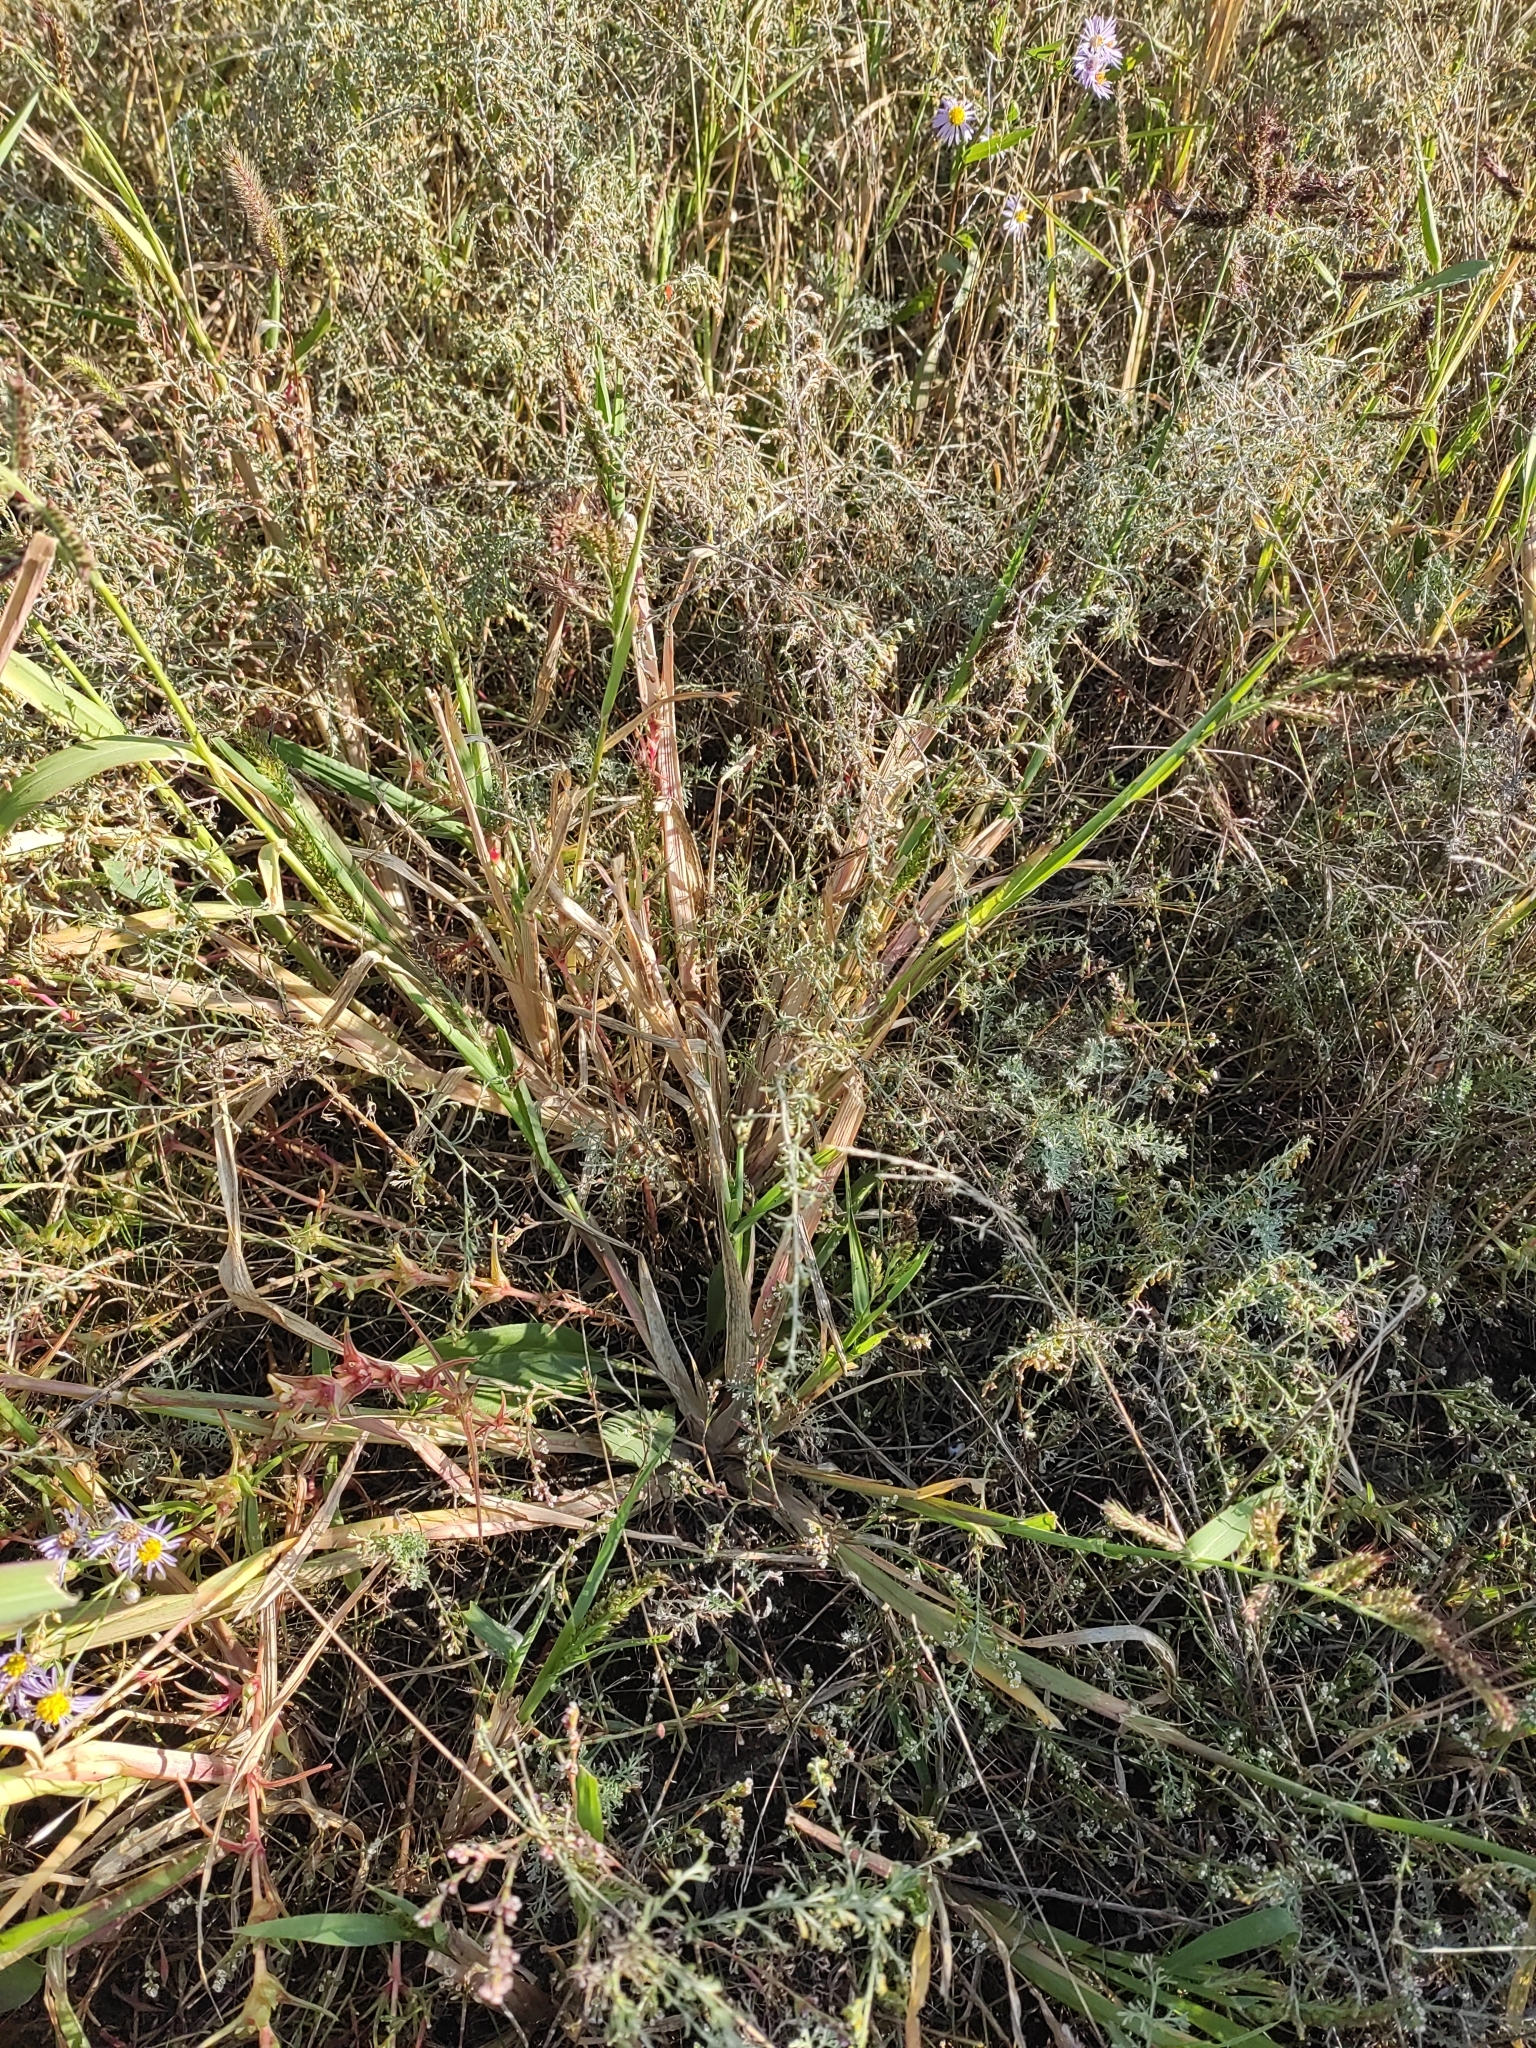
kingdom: Plantae
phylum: Tracheophyta
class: Liliopsida
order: Poales
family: Poaceae
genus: Echinochloa
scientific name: Echinochloa crus-galli
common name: Cockspur
